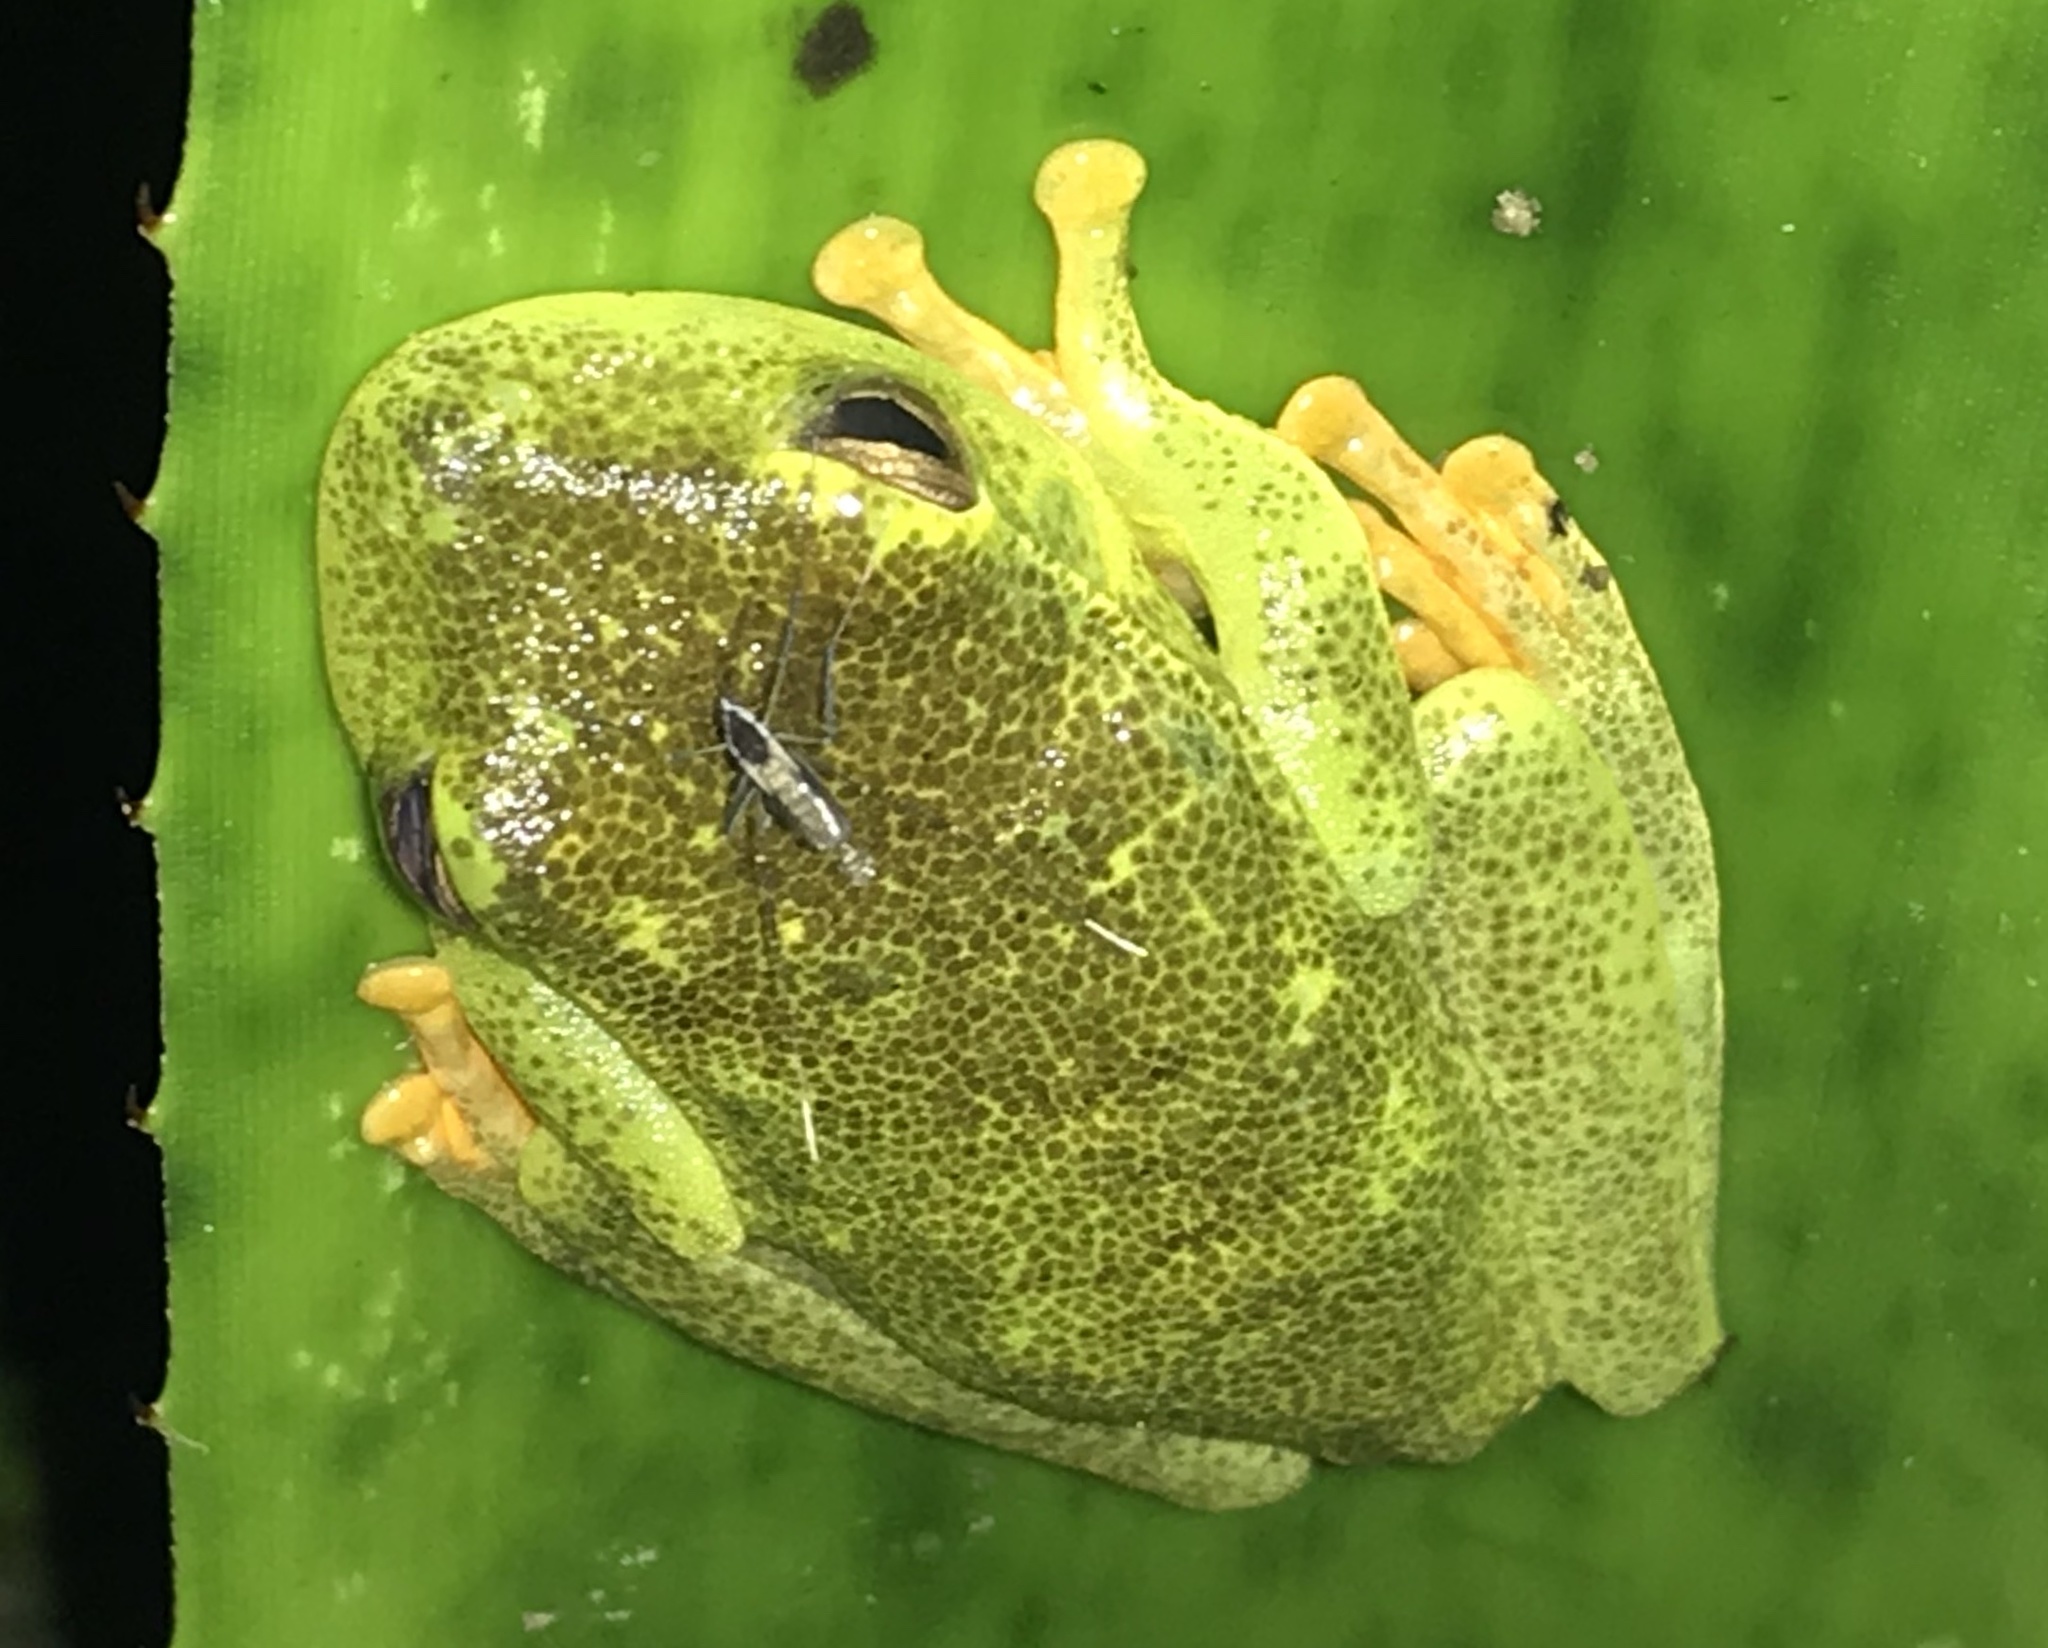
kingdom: Animalia
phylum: Chordata
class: Amphibia
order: Anura
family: Hylidae
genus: Boana
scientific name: Boana albomarginata
